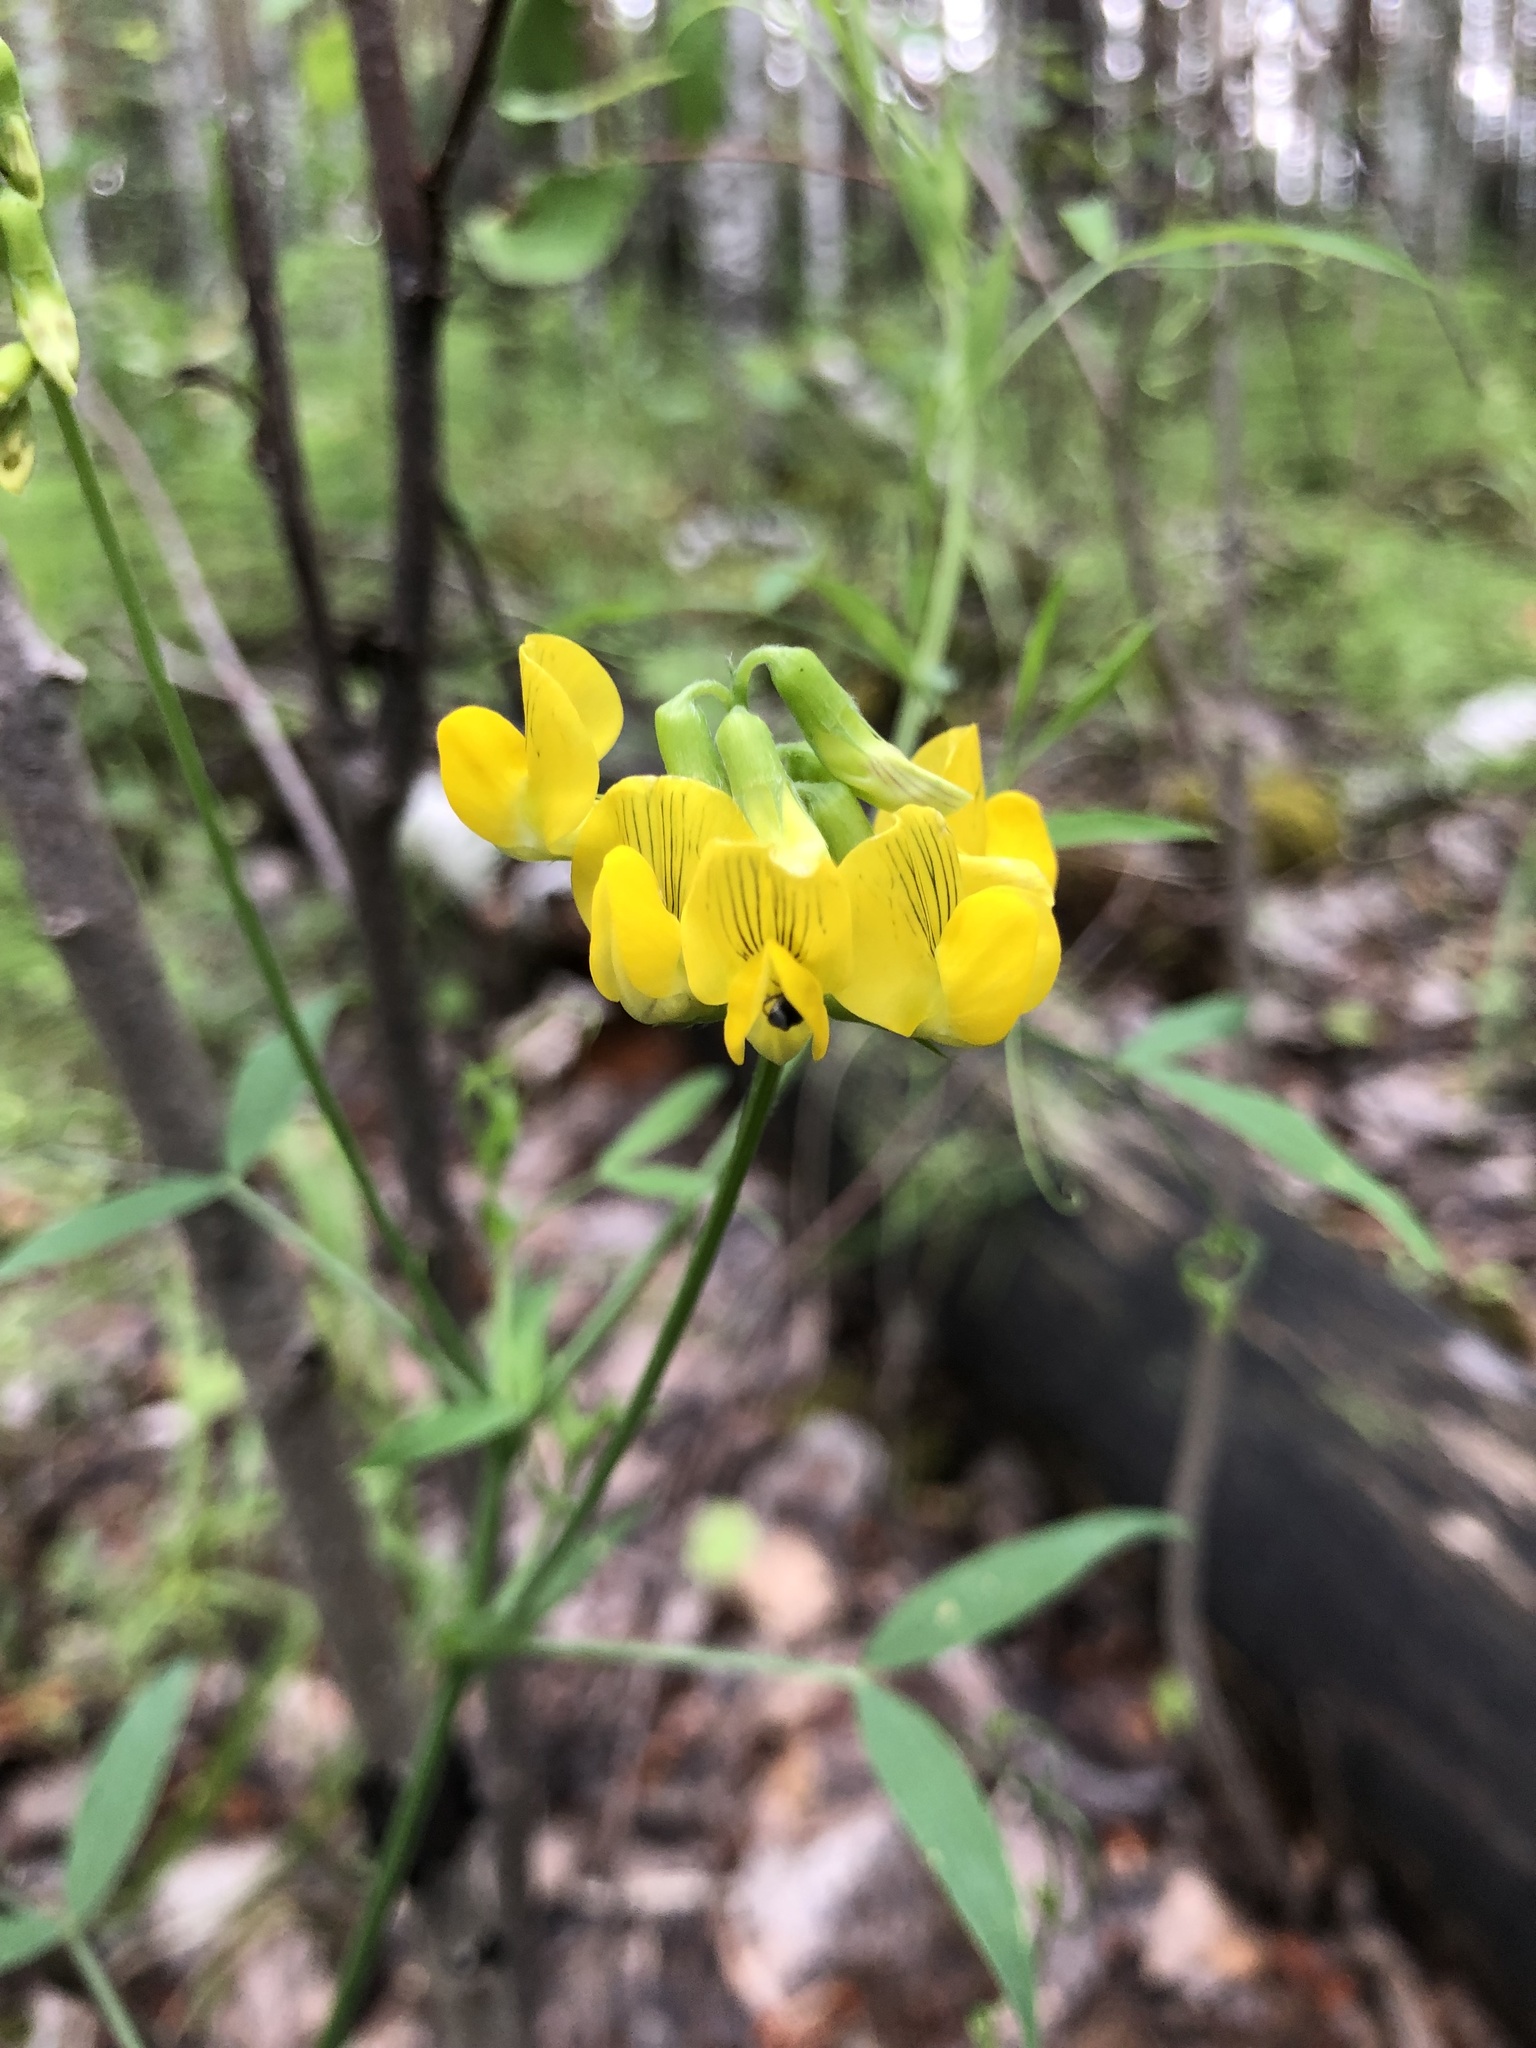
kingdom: Plantae
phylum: Tracheophyta
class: Magnoliopsida
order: Fabales
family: Fabaceae
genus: Lathyrus
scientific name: Lathyrus pratensis
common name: Meadow vetchling
